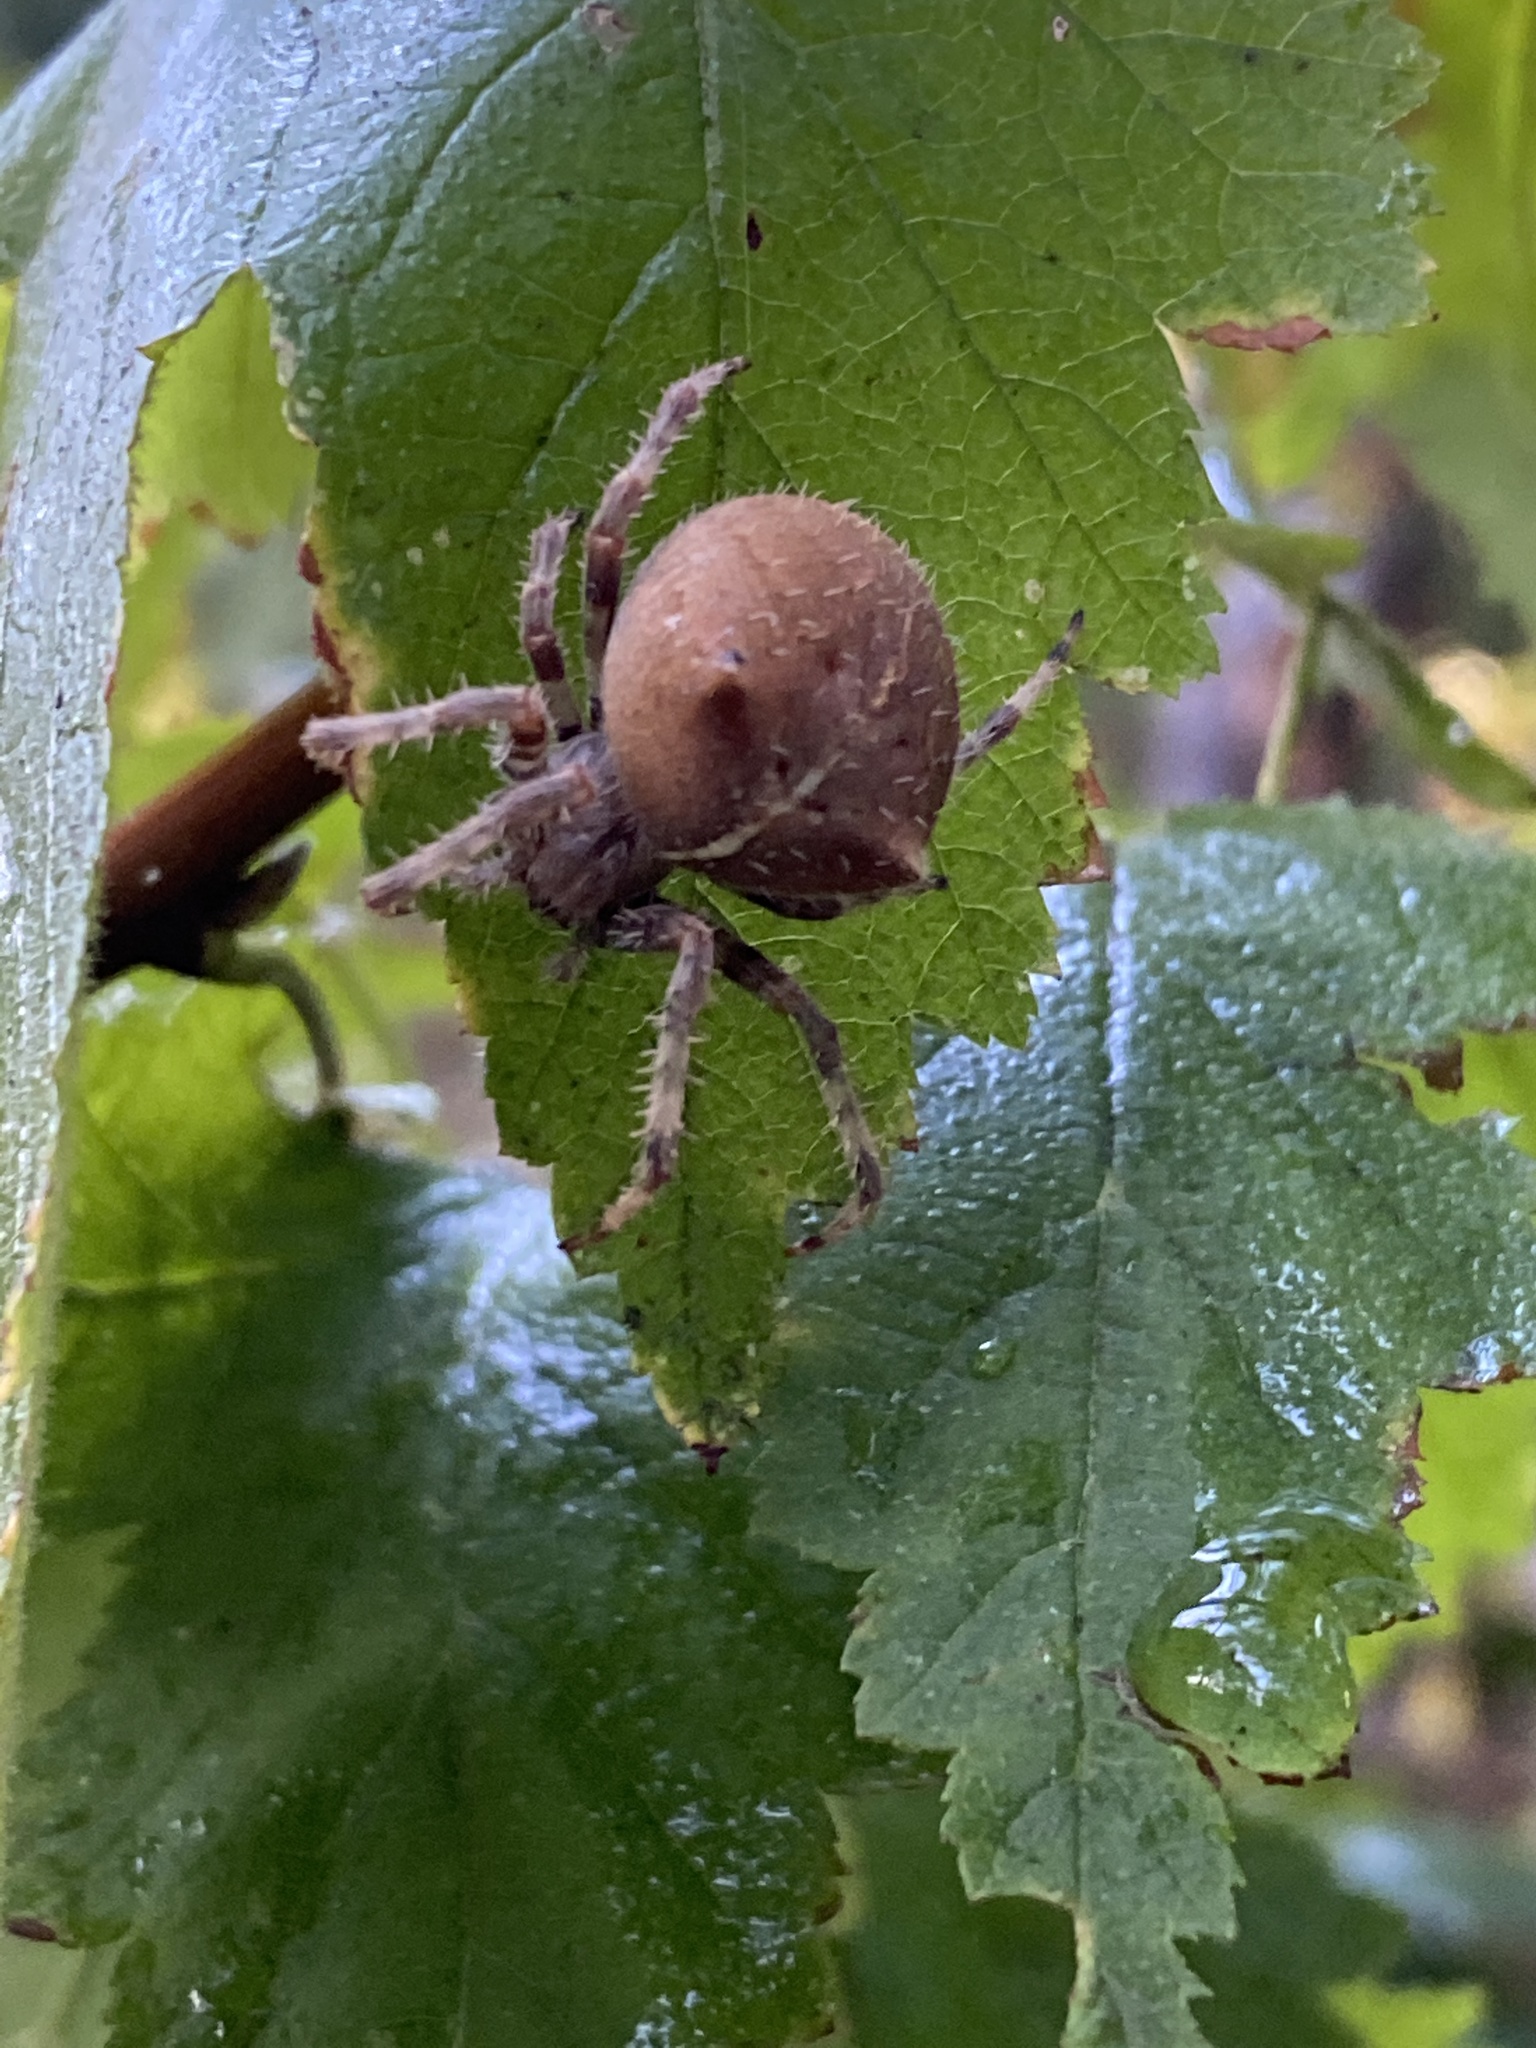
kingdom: Animalia
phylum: Arthropoda
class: Arachnida
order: Araneae
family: Araneidae
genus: Araneus
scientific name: Araneus gemma
